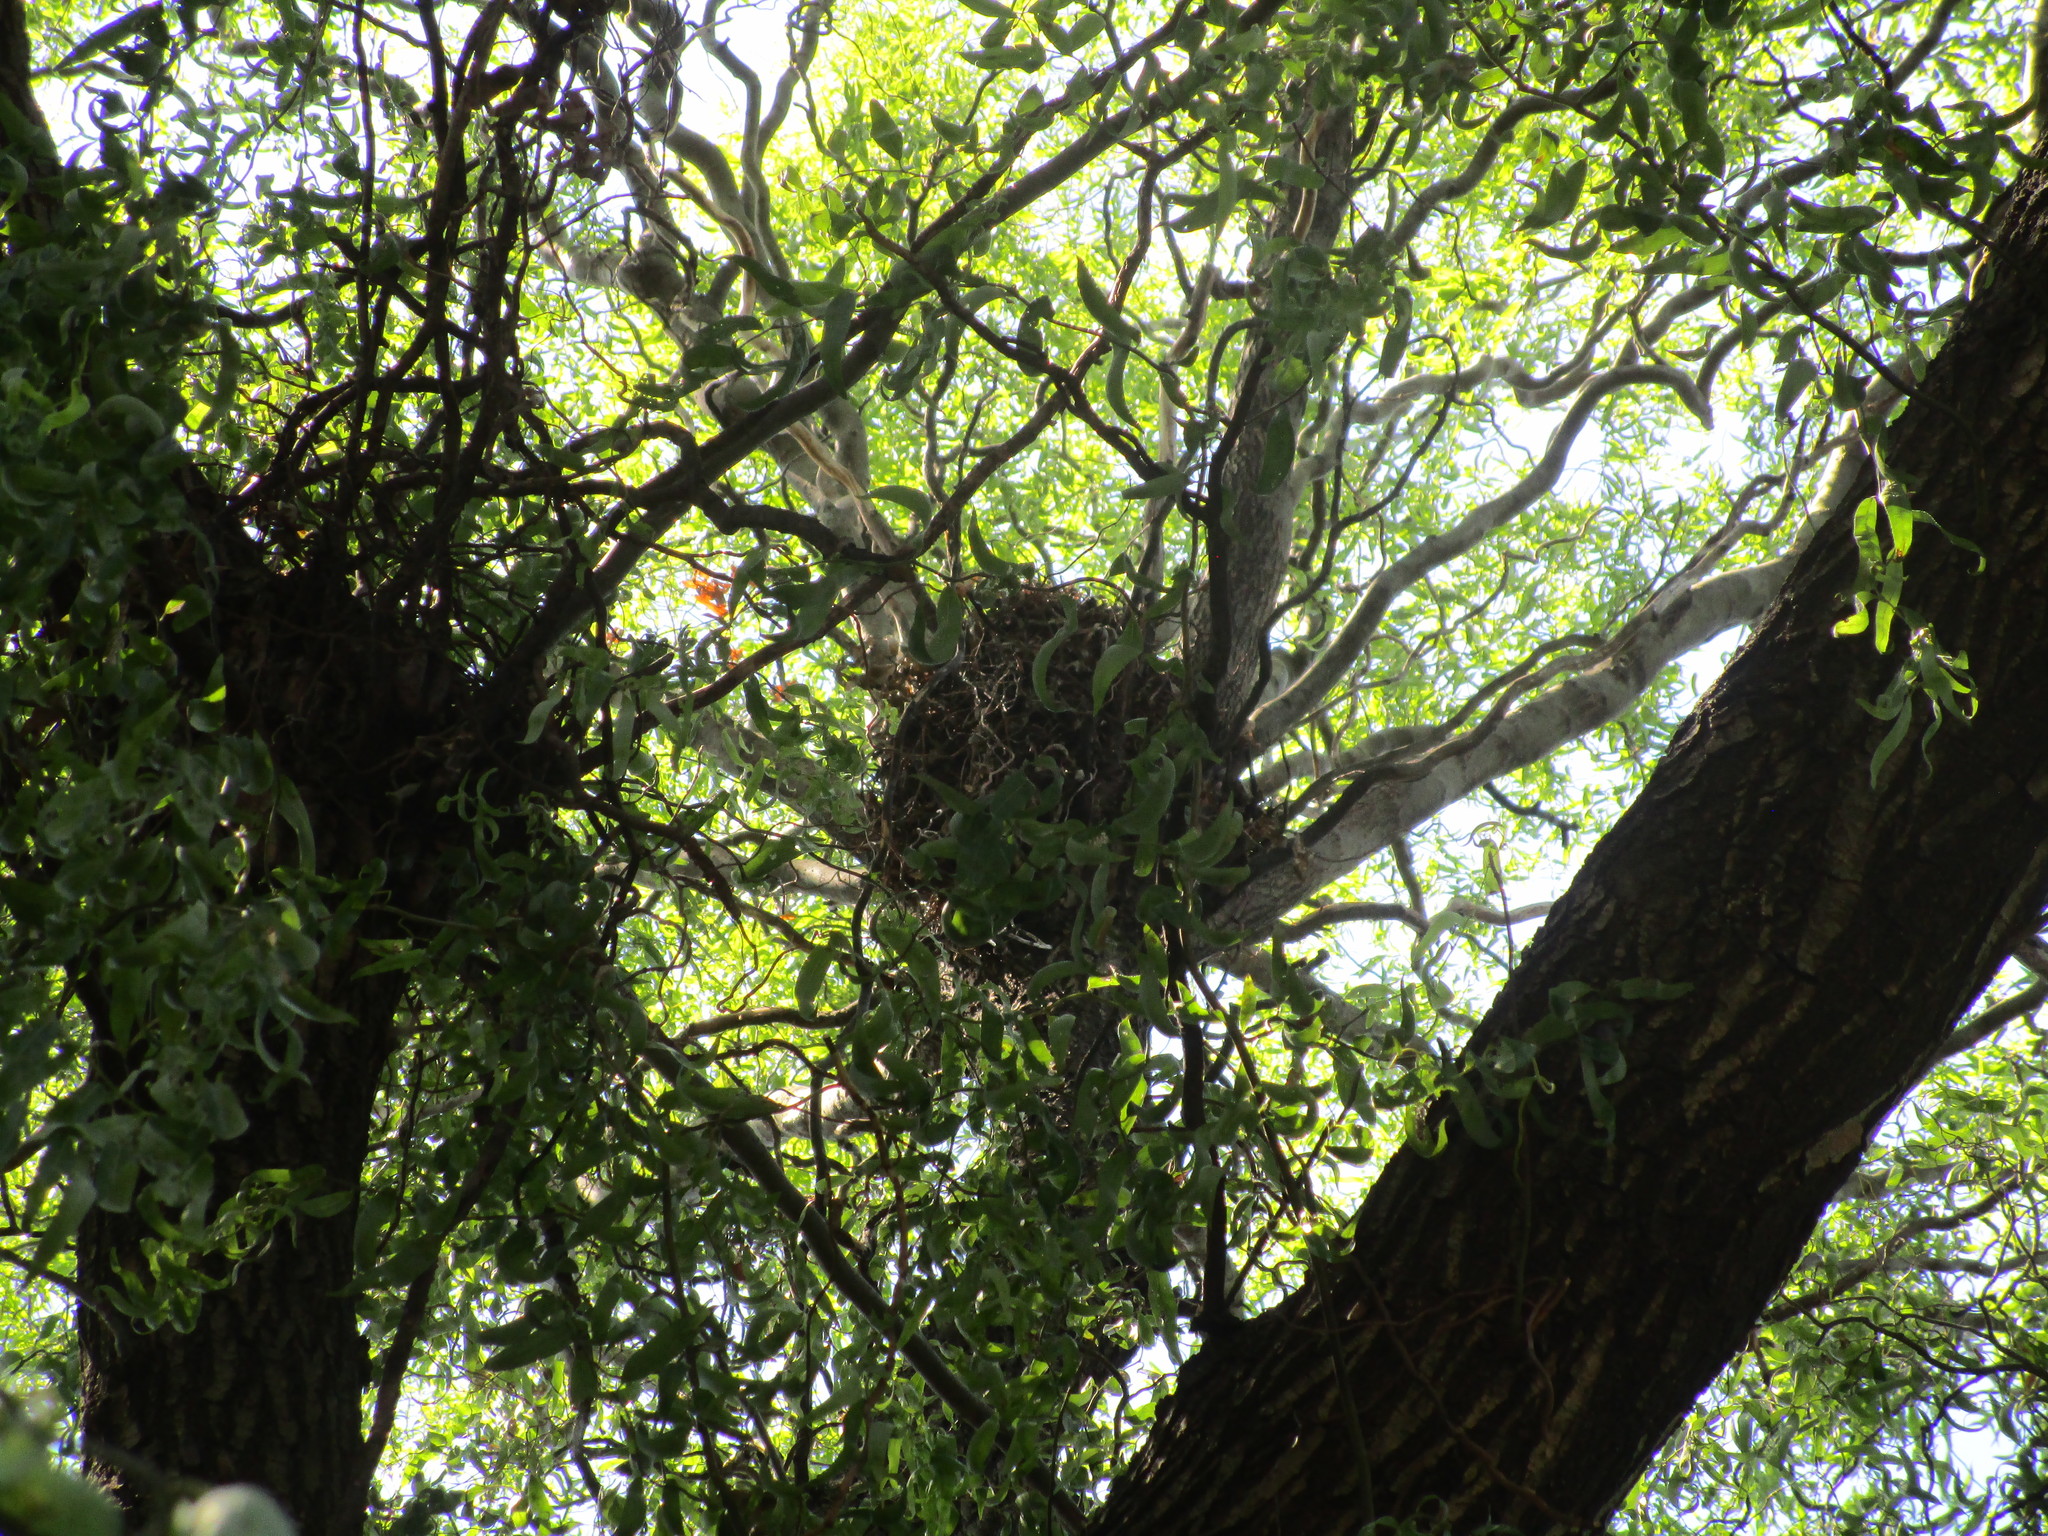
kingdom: Animalia
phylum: Chordata
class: Mammalia
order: Rodentia
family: Sciuridae
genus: Sciurus
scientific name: Sciurus carolinensis
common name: Eastern gray squirrel
